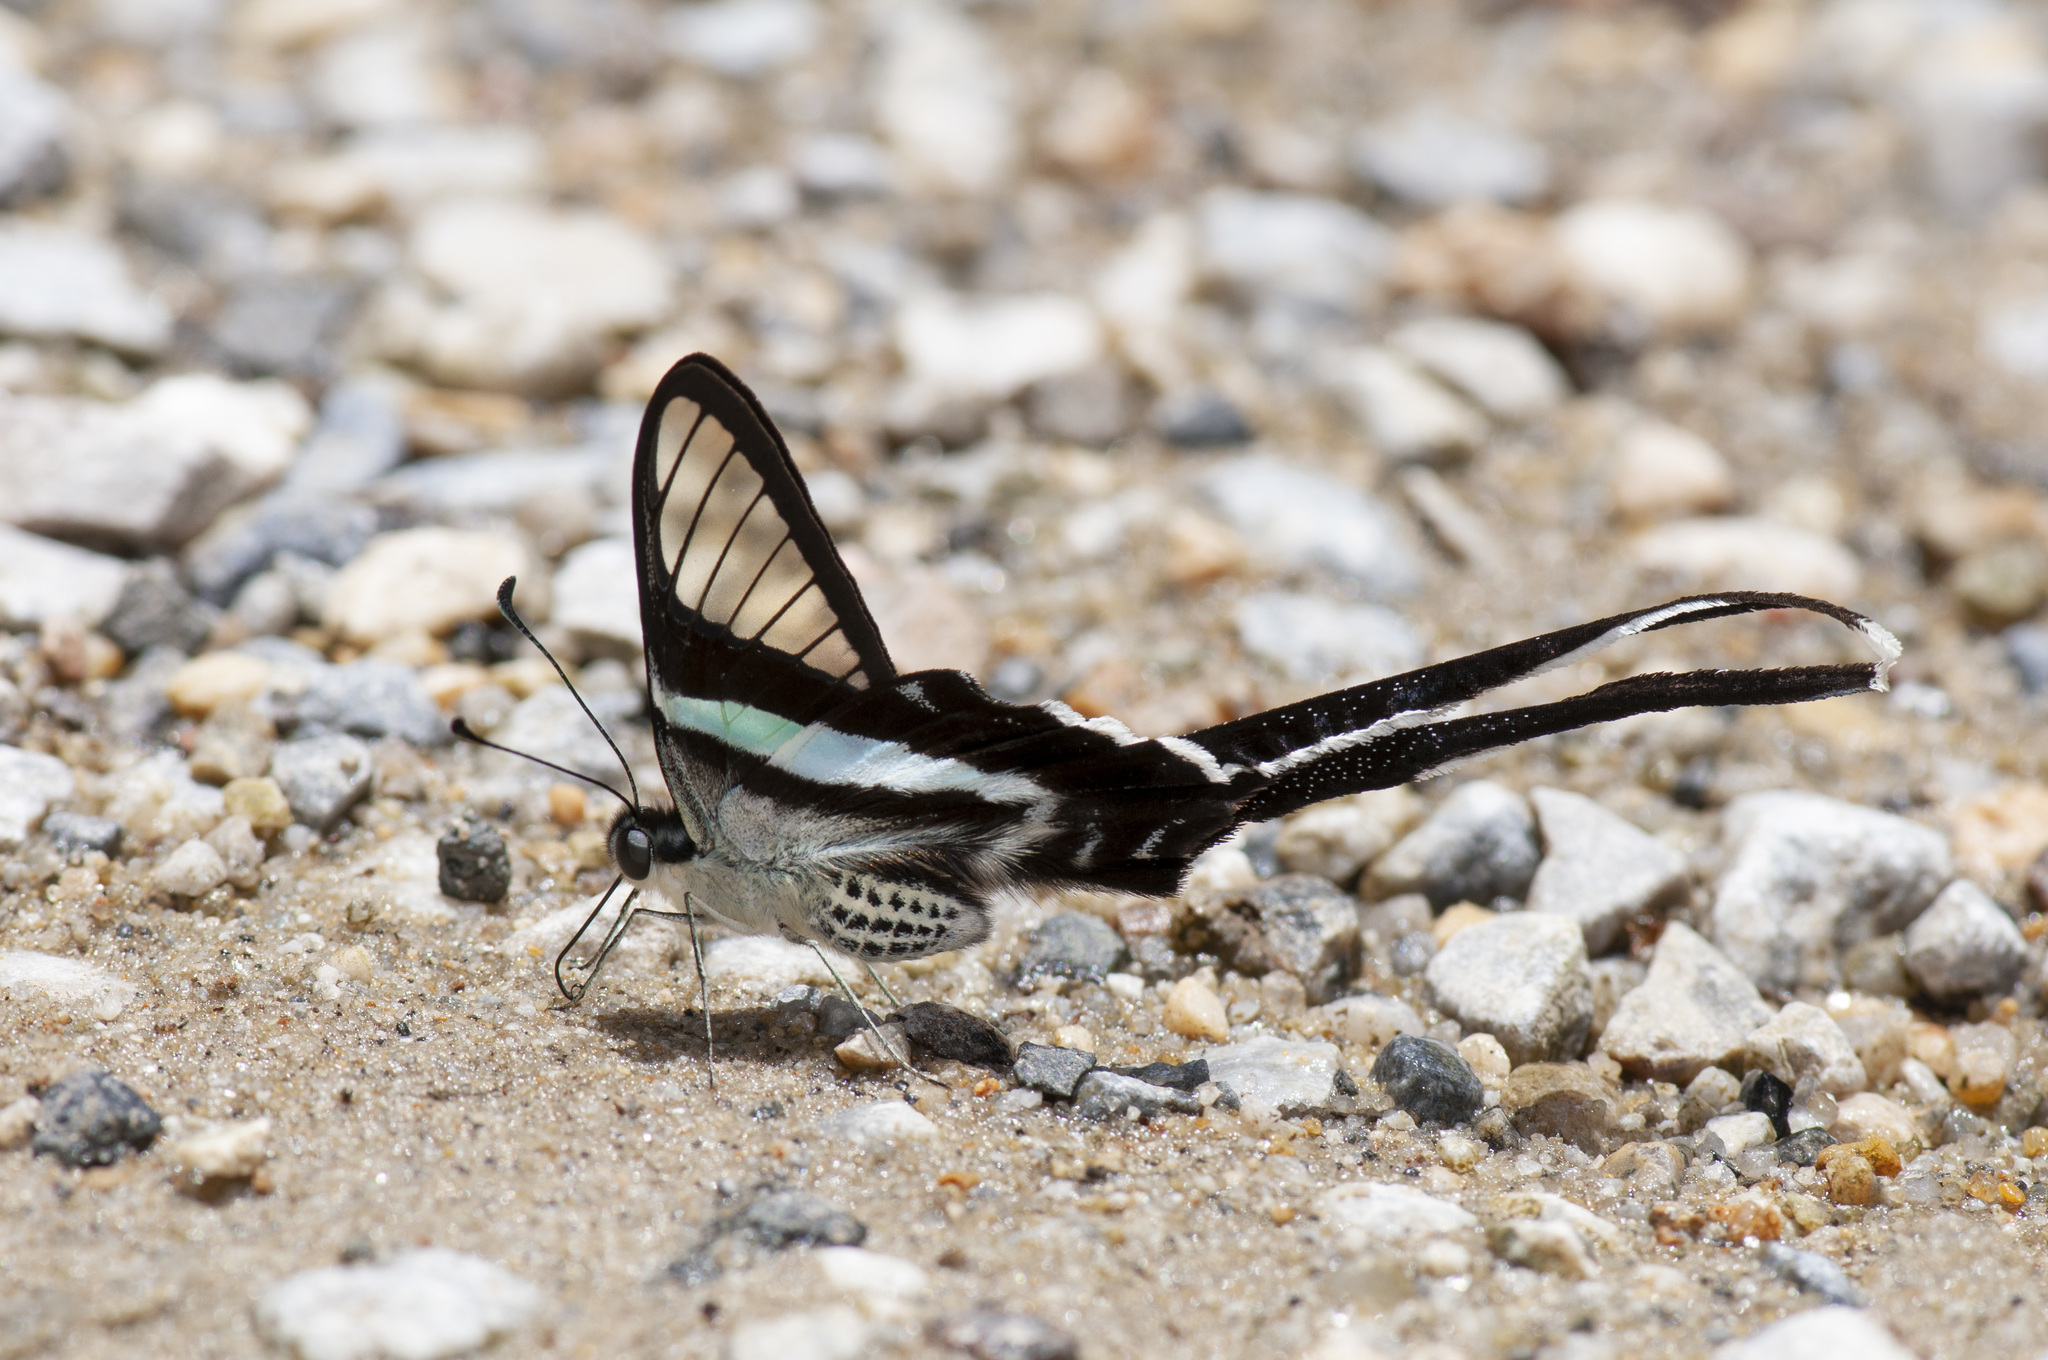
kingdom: Animalia
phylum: Arthropoda
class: Insecta
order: Lepidoptera
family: Papilionidae
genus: Lamproptera
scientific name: Lamproptera meges
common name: Green dragontail
